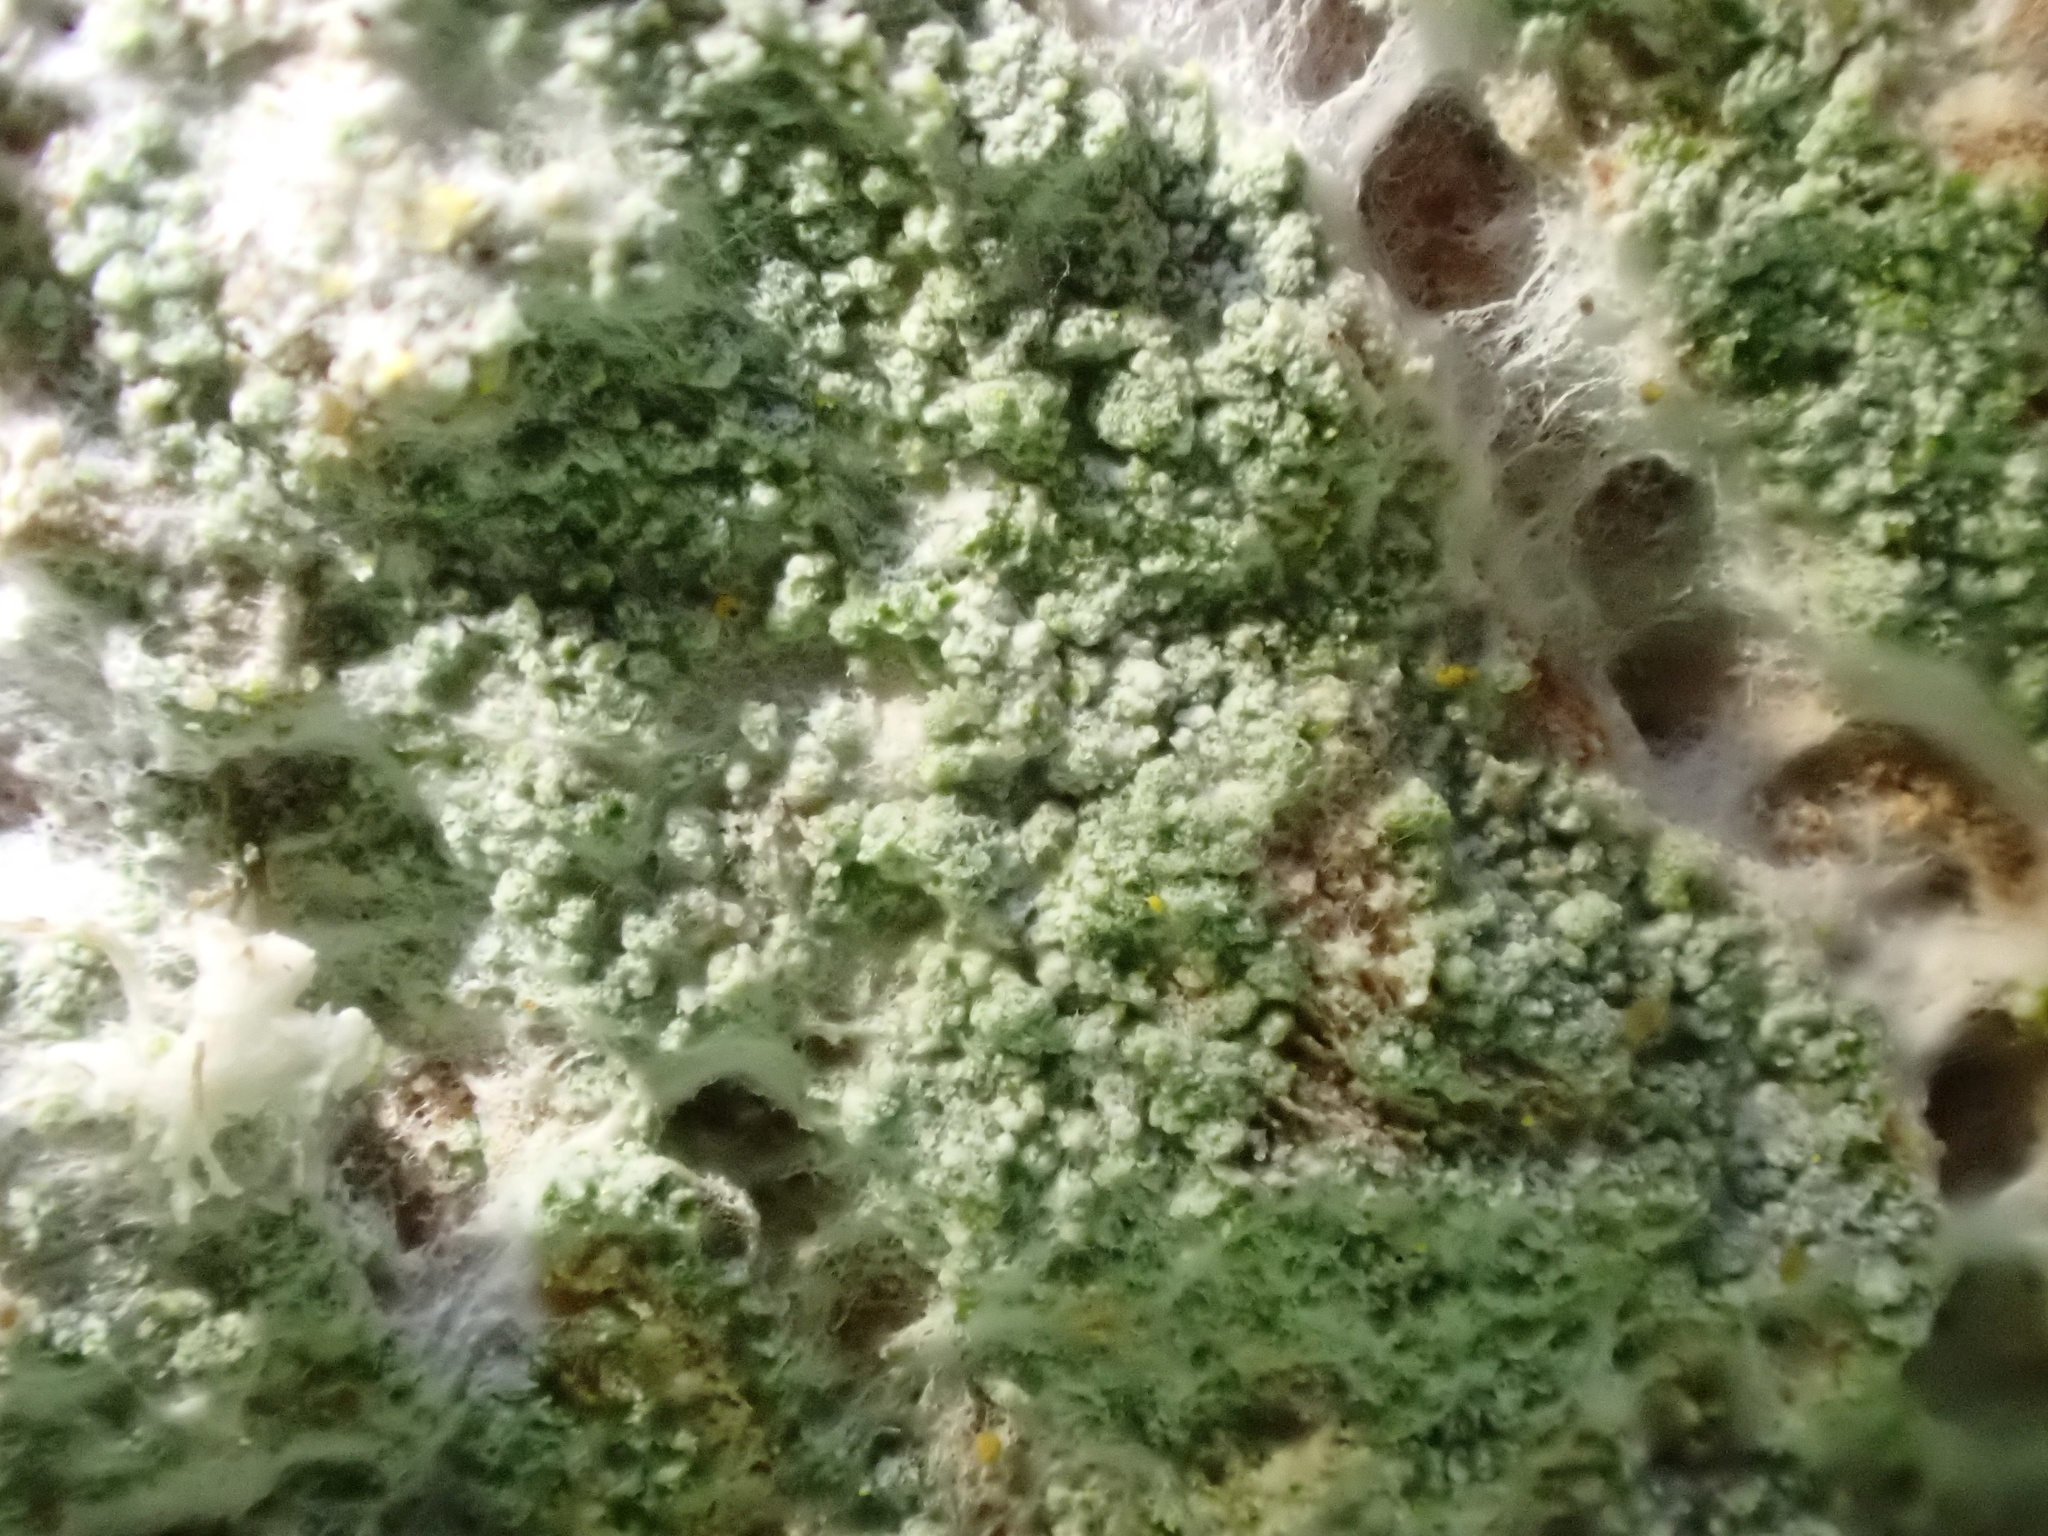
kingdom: Fungi
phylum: Ascomycota
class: Lecanoromycetes
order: Ostropales
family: Phlyctidaceae
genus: Phlyctis
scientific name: Phlyctis argena
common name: Whitewash lichen
